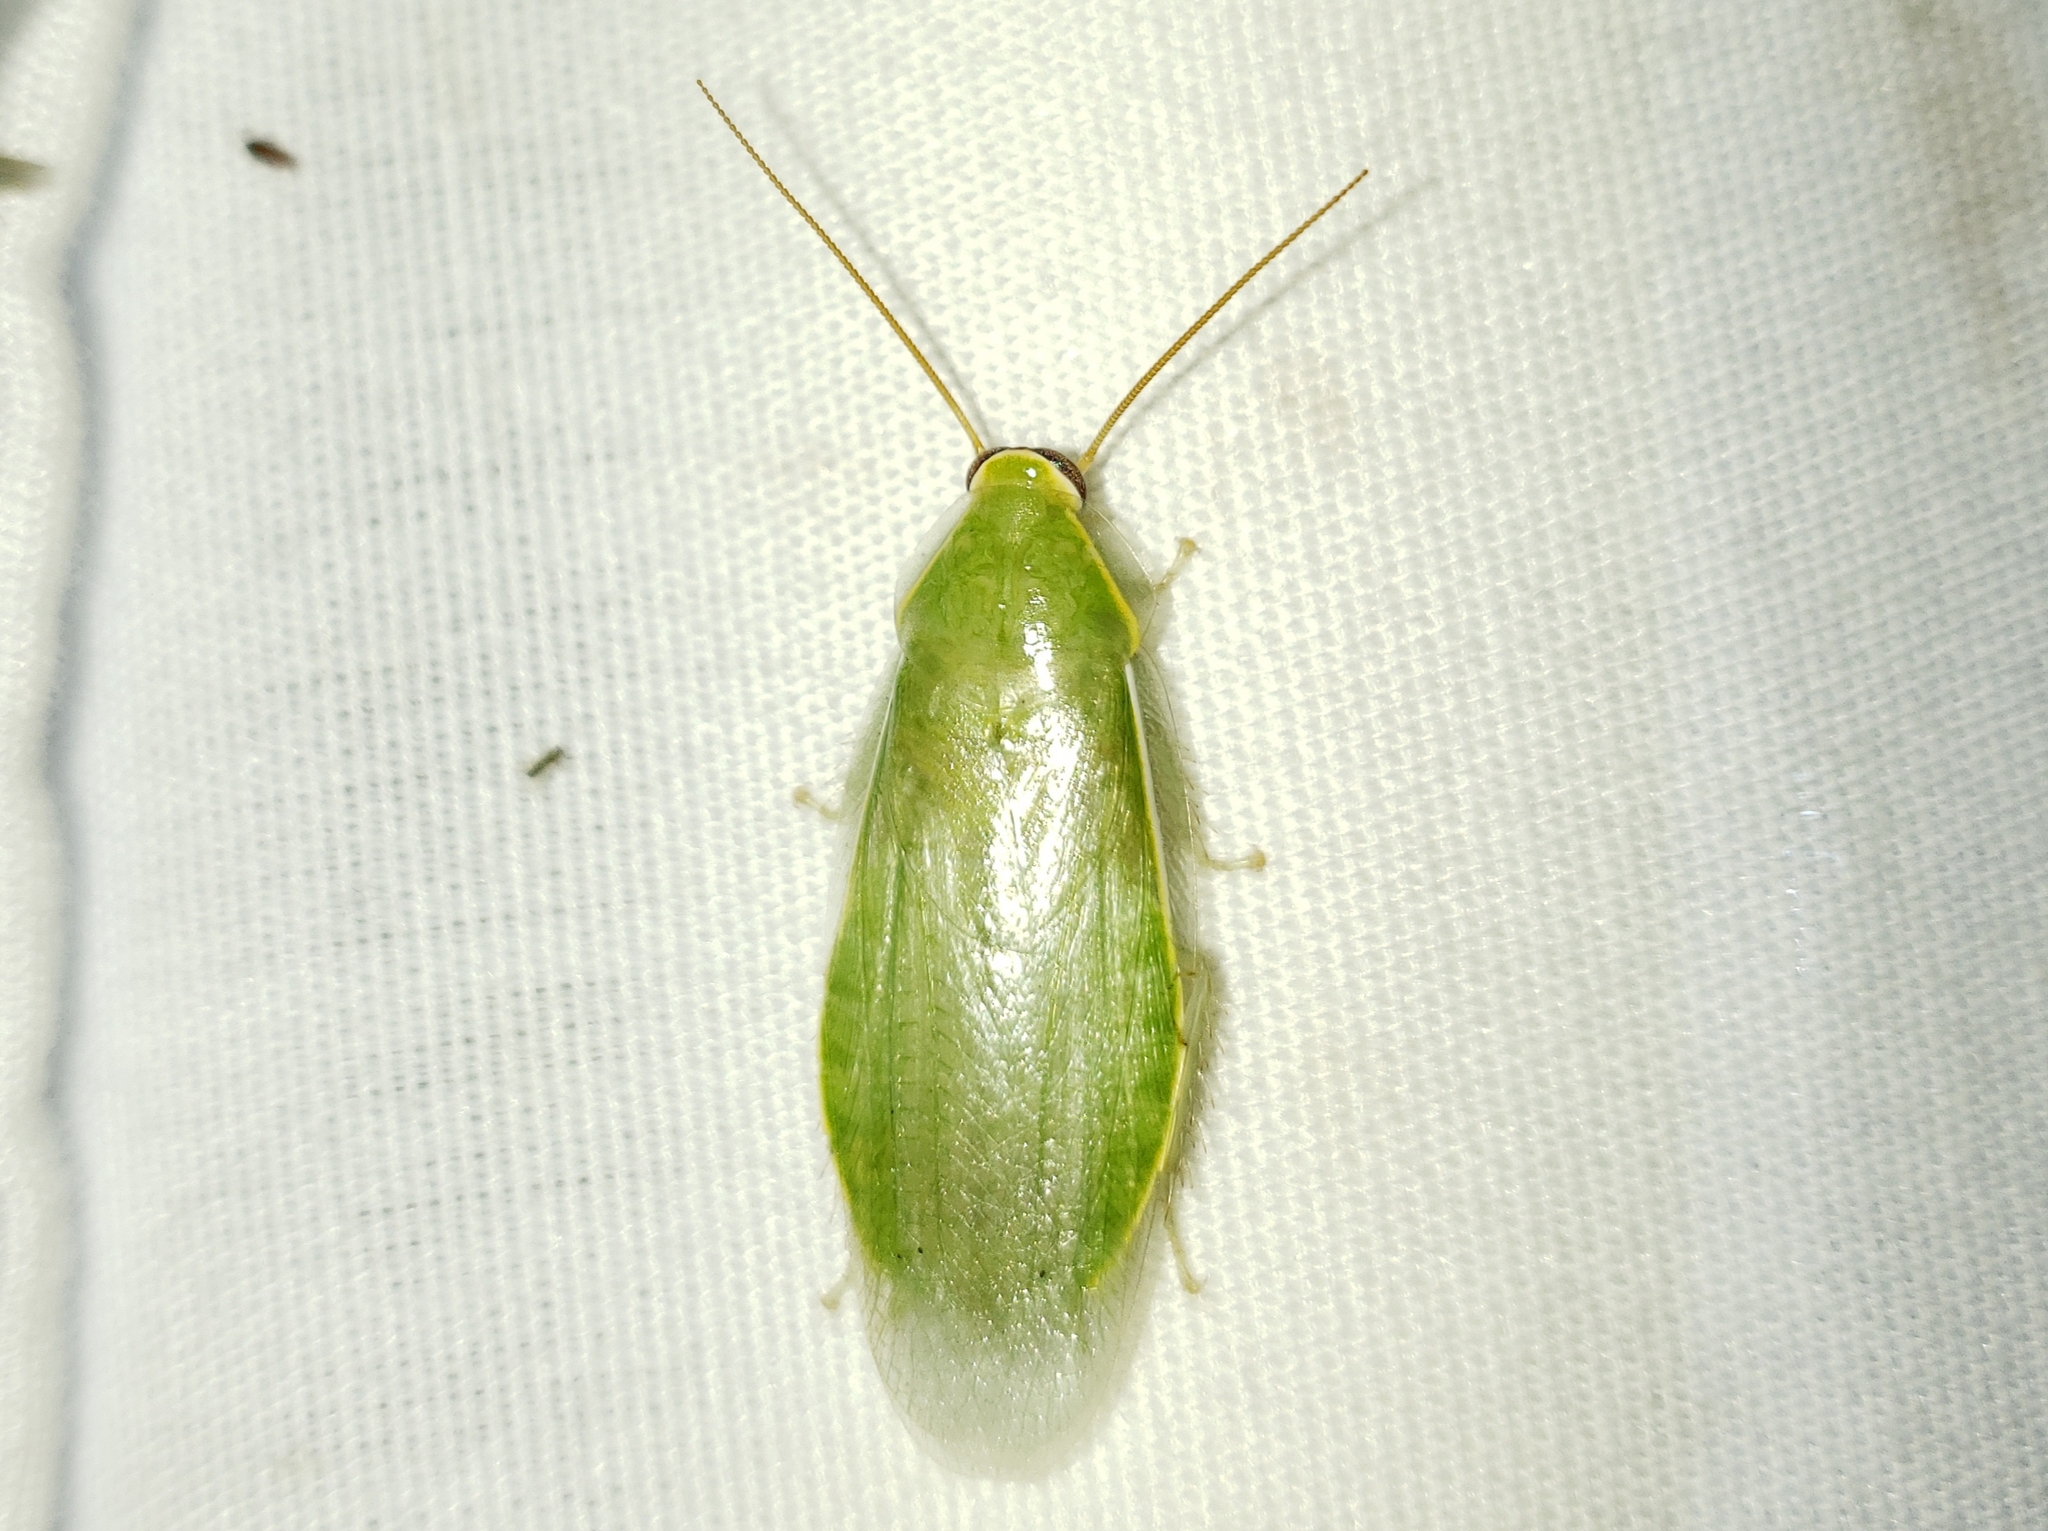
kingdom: Animalia
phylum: Arthropoda
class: Insecta
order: Blattodea
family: Blaberidae
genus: Panchlora
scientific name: Panchlora nivea
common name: Cuban cockroach
